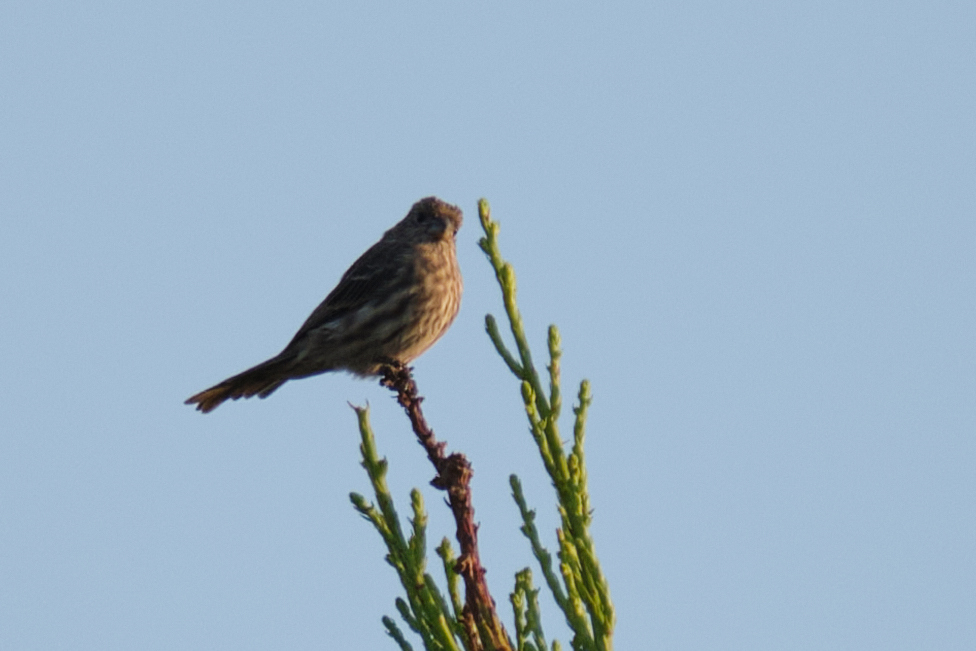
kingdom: Animalia
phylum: Chordata
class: Aves
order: Passeriformes
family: Fringillidae
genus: Haemorhous
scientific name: Haemorhous mexicanus
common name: House finch
